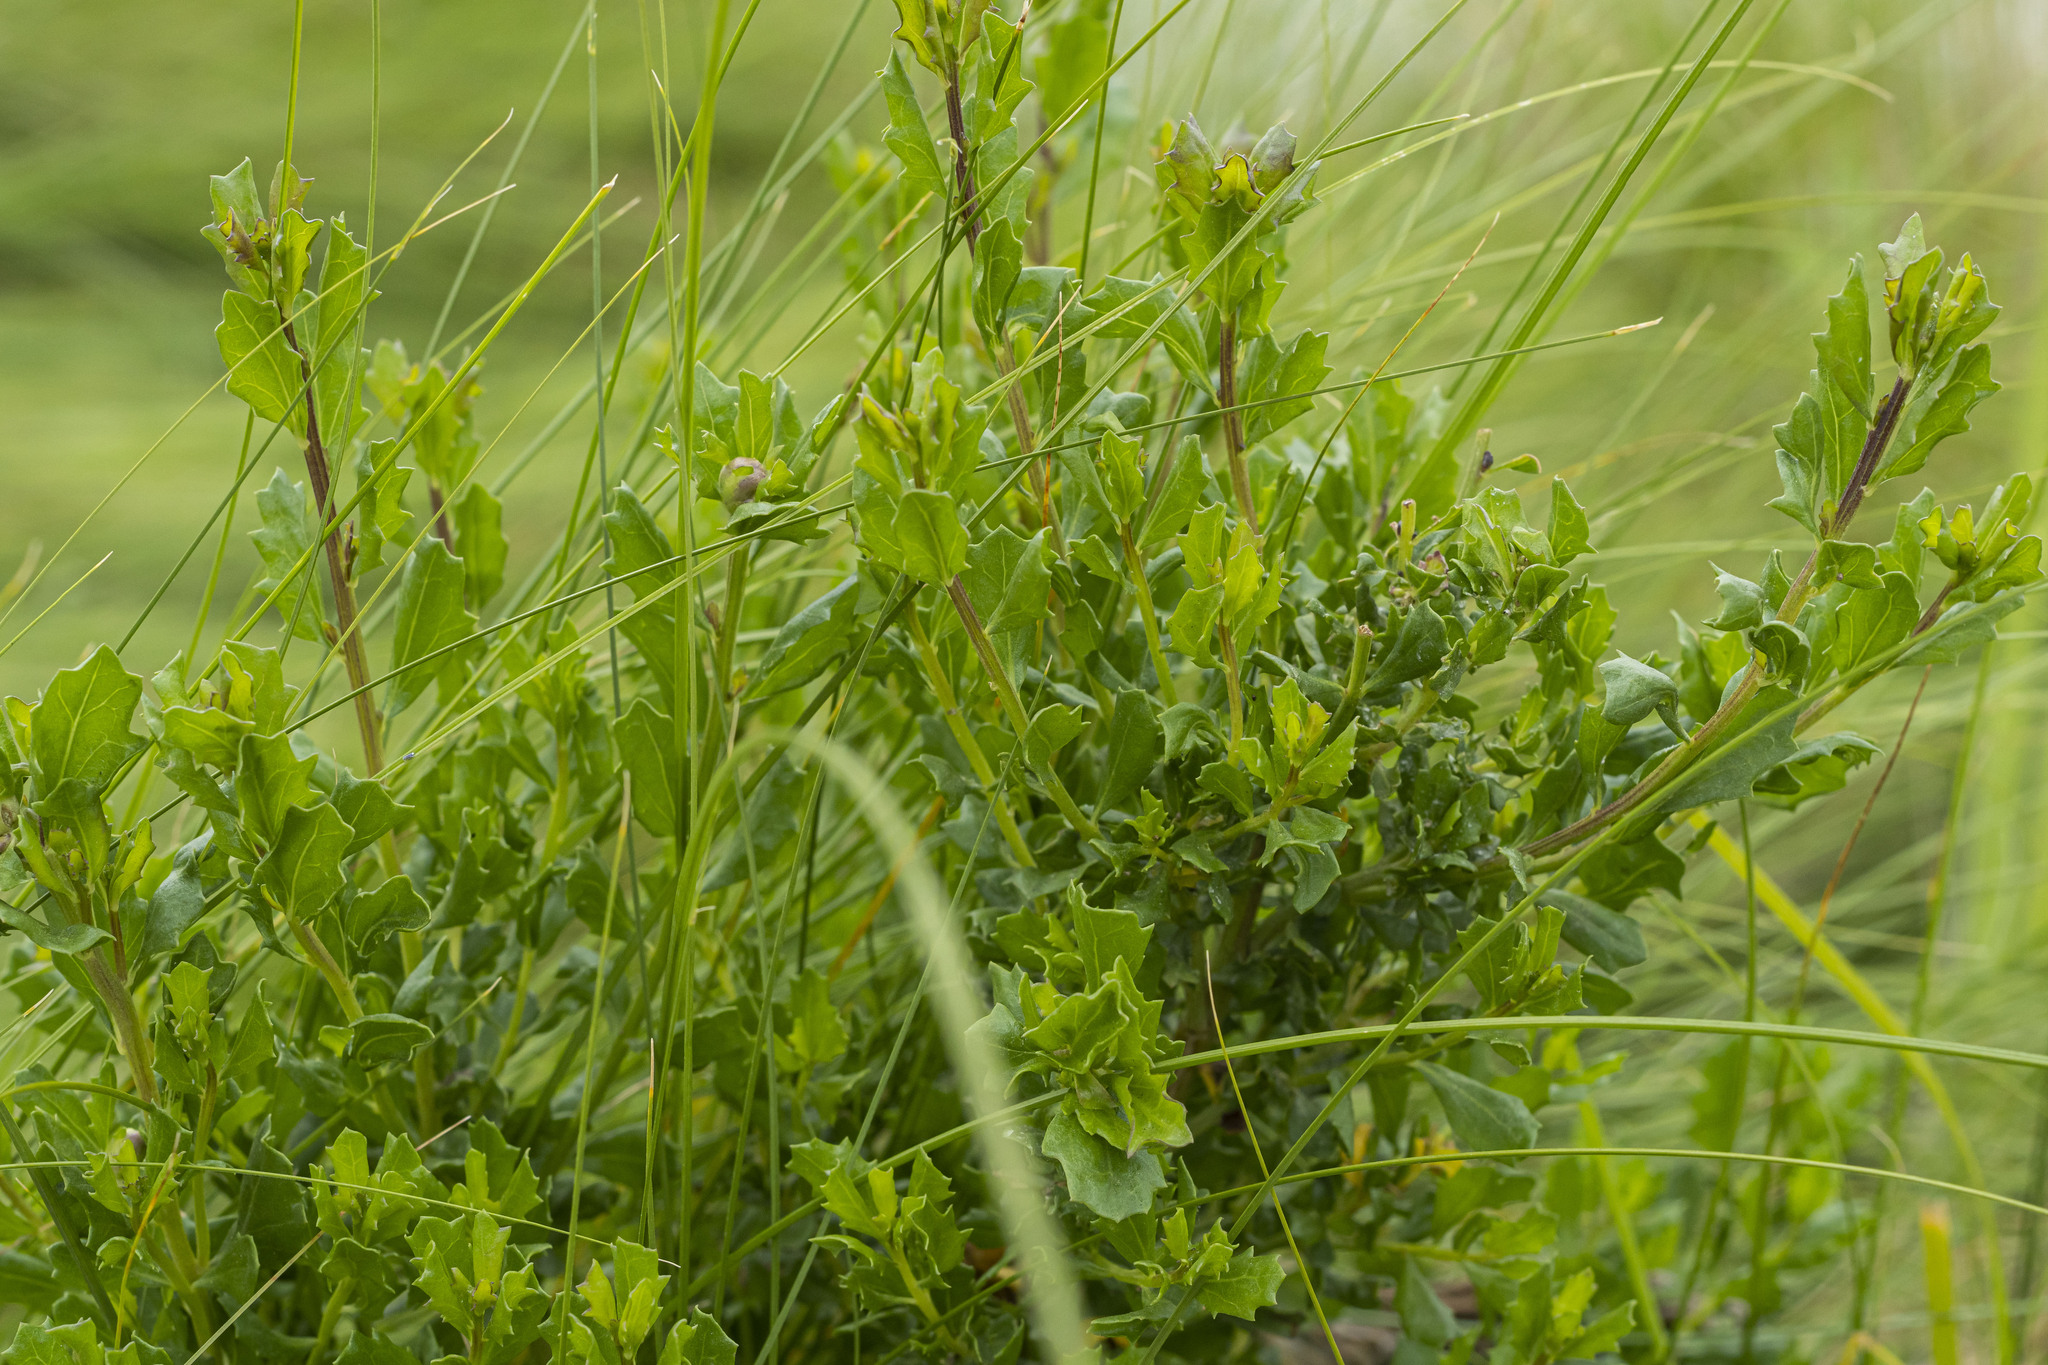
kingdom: Plantae
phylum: Tracheophyta
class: Magnoliopsida
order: Asterales
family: Asteraceae
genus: Baccharis
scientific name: Baccharis pilularis
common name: Coyotebrush
